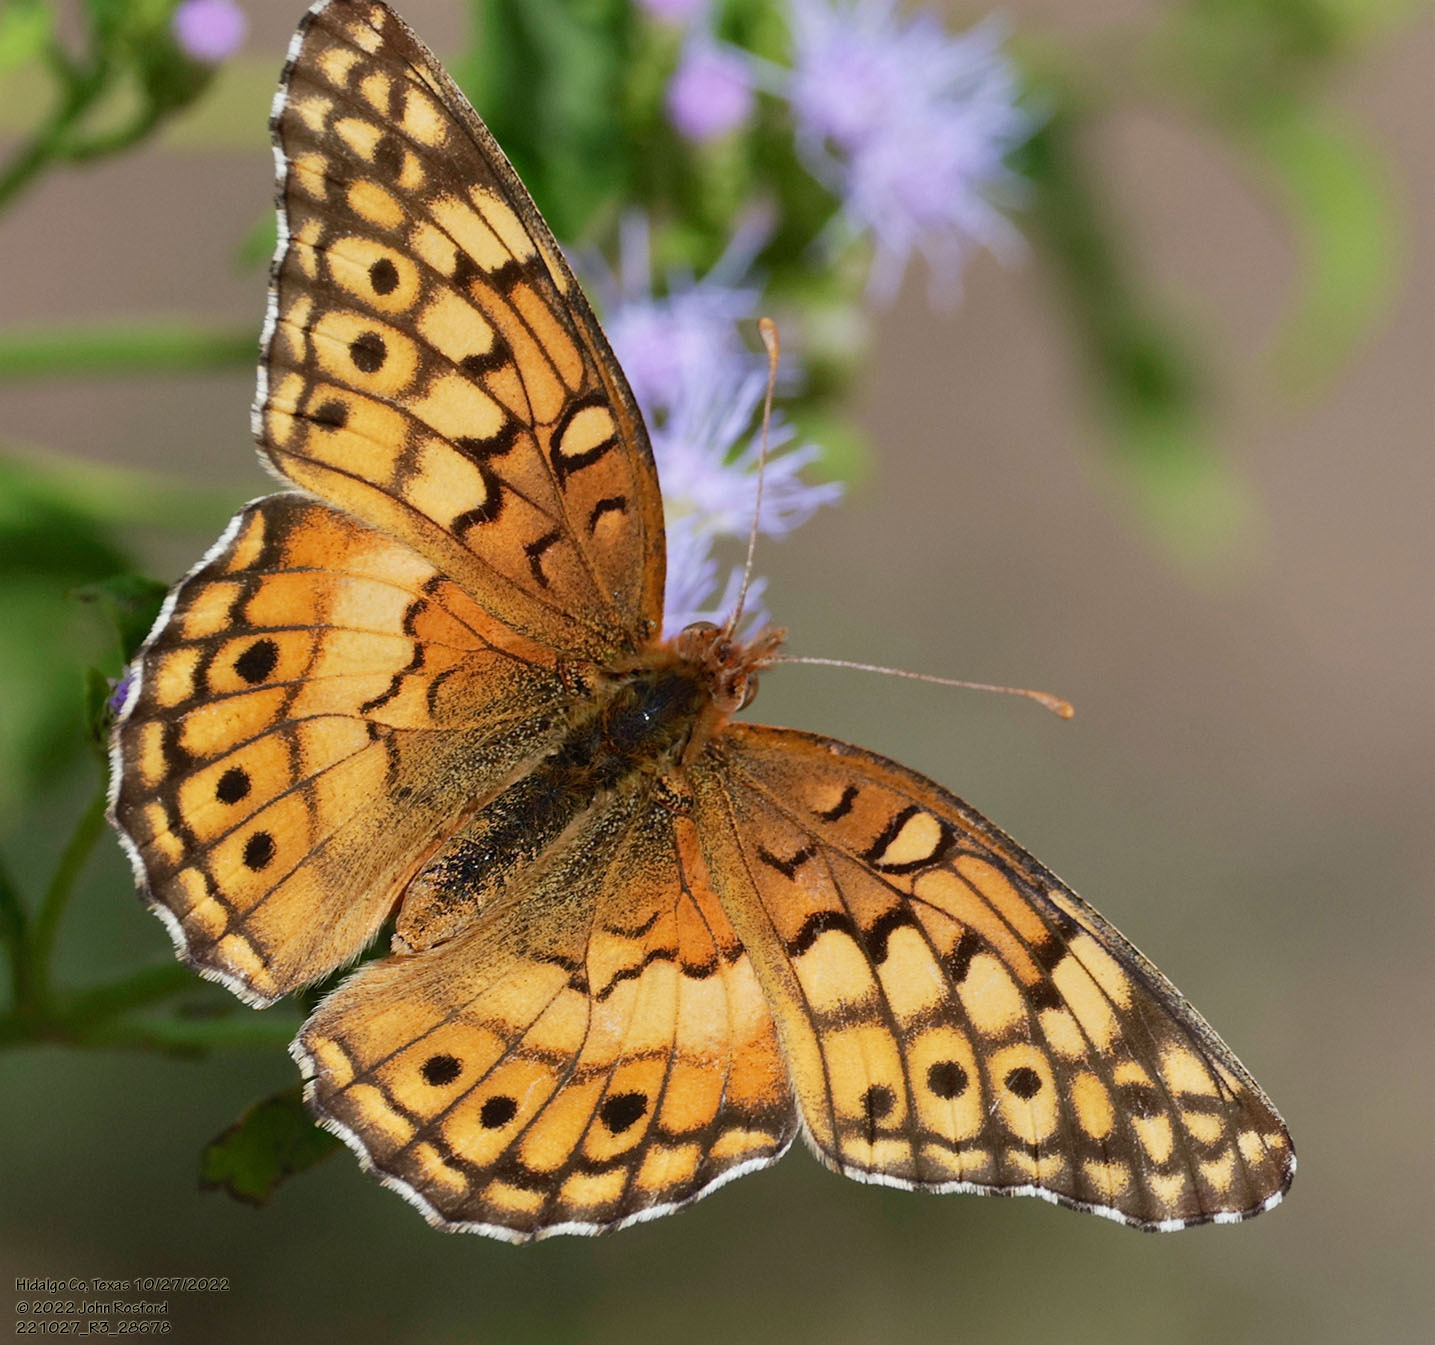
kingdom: Animalia
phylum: Arthropoda
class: Insecta
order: Lepidoptera
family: Nymphalidae
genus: Euptoieta
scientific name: Euptoieta claudia
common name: Variegated fritillary
